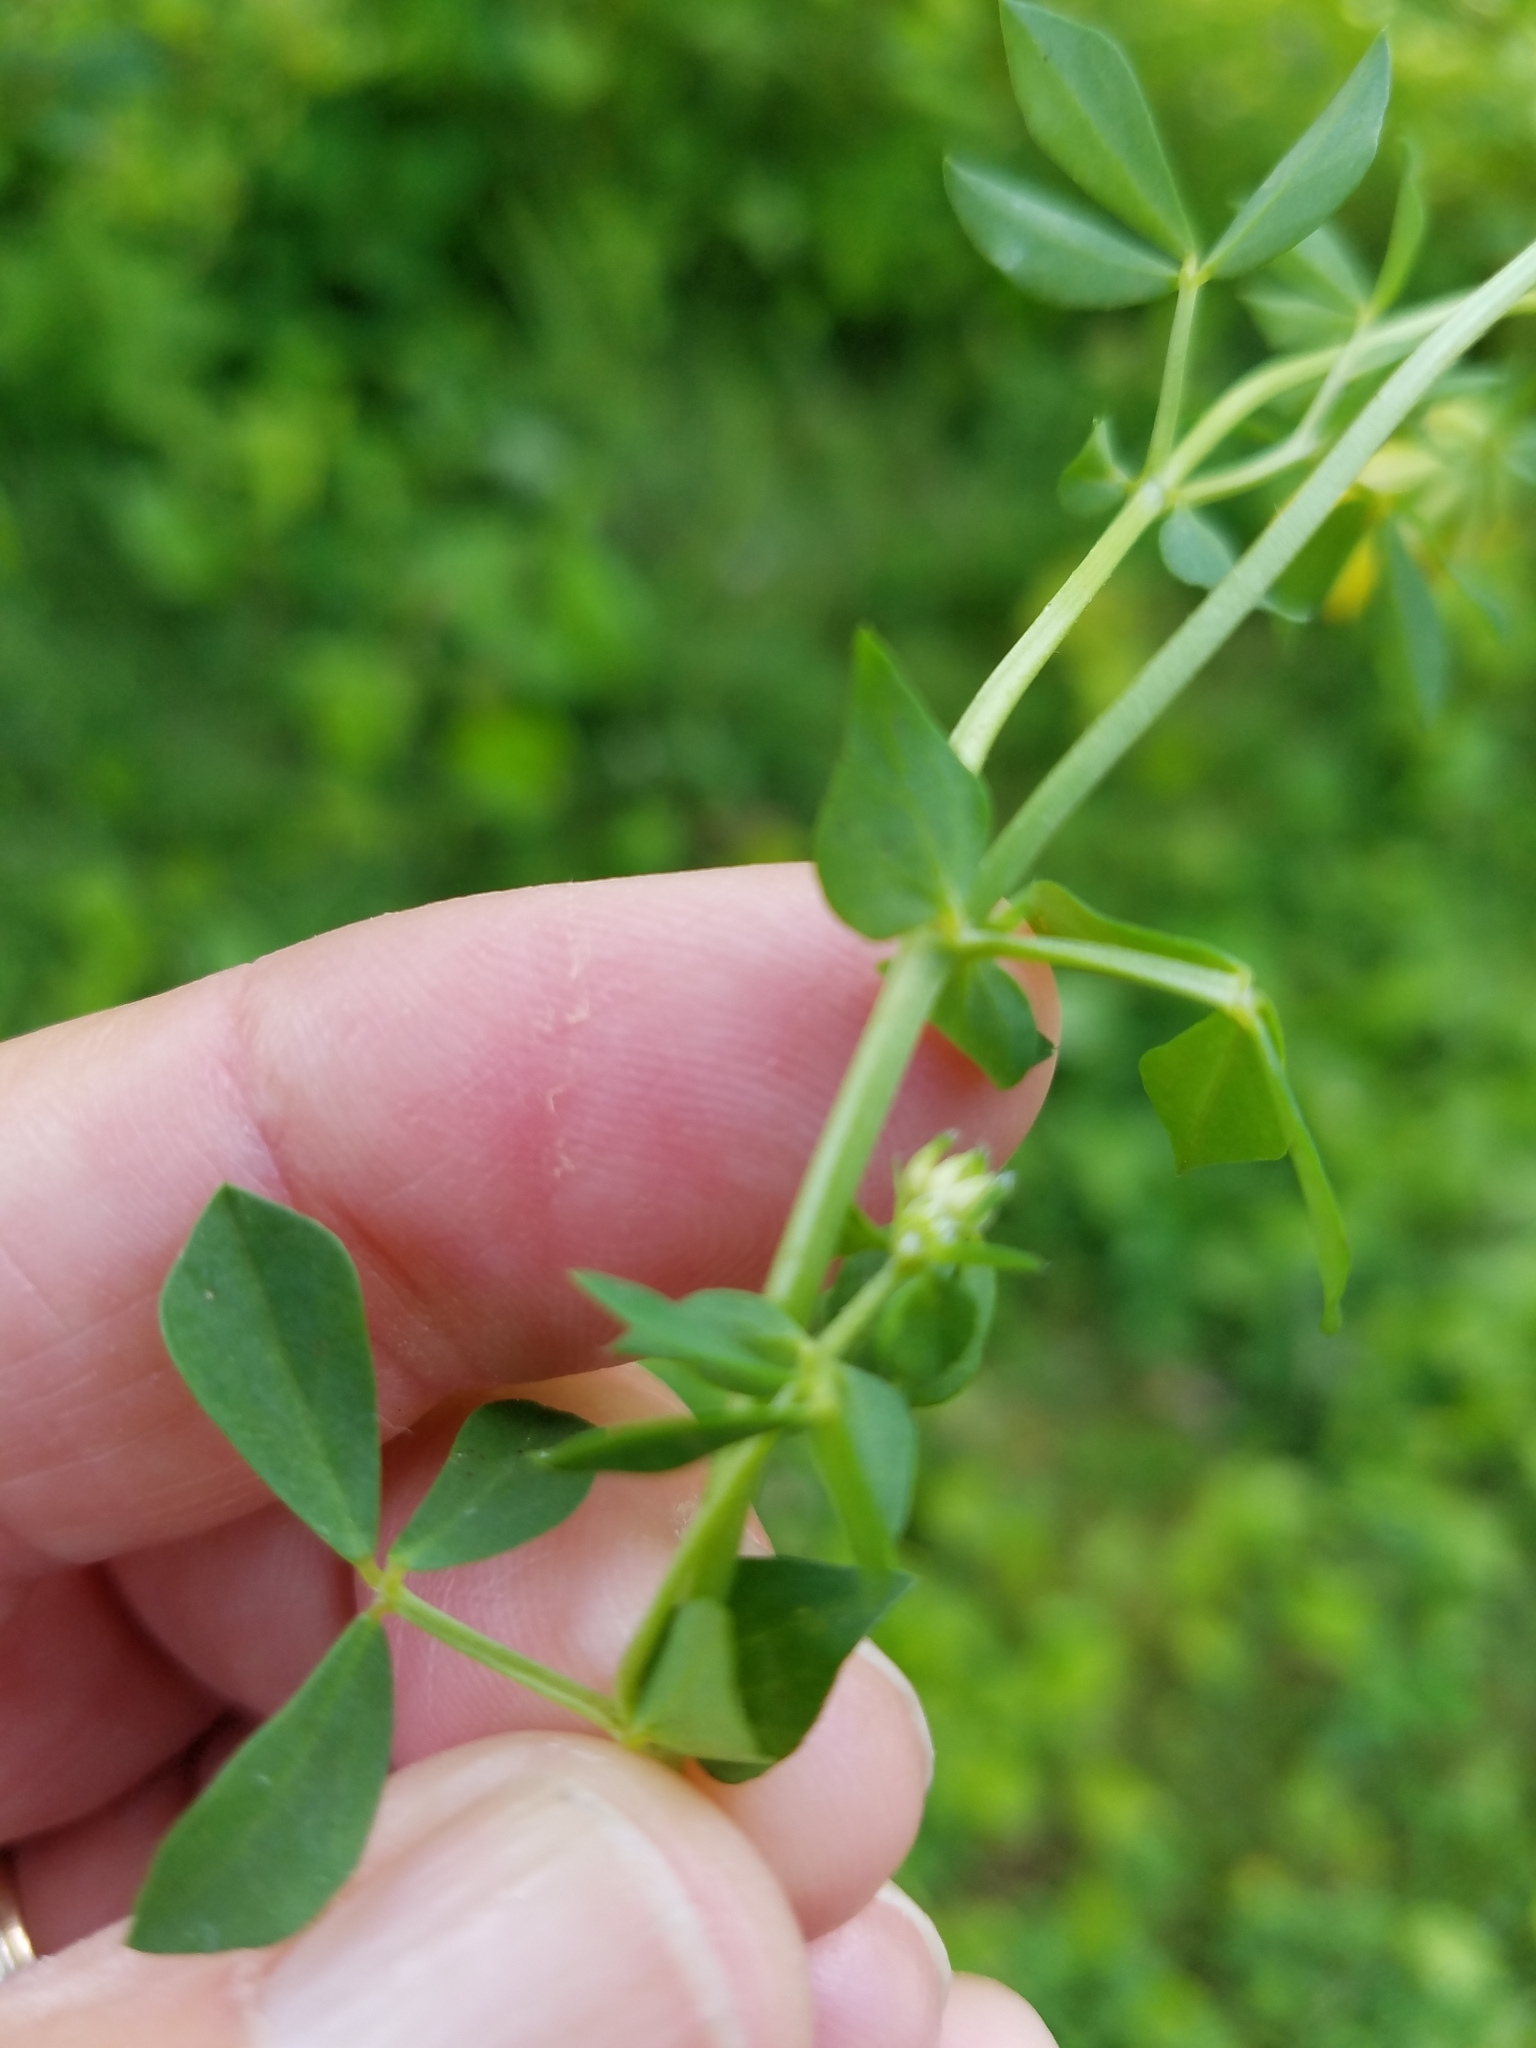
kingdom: Plantae
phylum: Tracheophyta
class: Magnoliopsida
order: Fabales
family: Fabaceae
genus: Lotus
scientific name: Lotus corniculatus
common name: Common bird's-foot-trefoil
